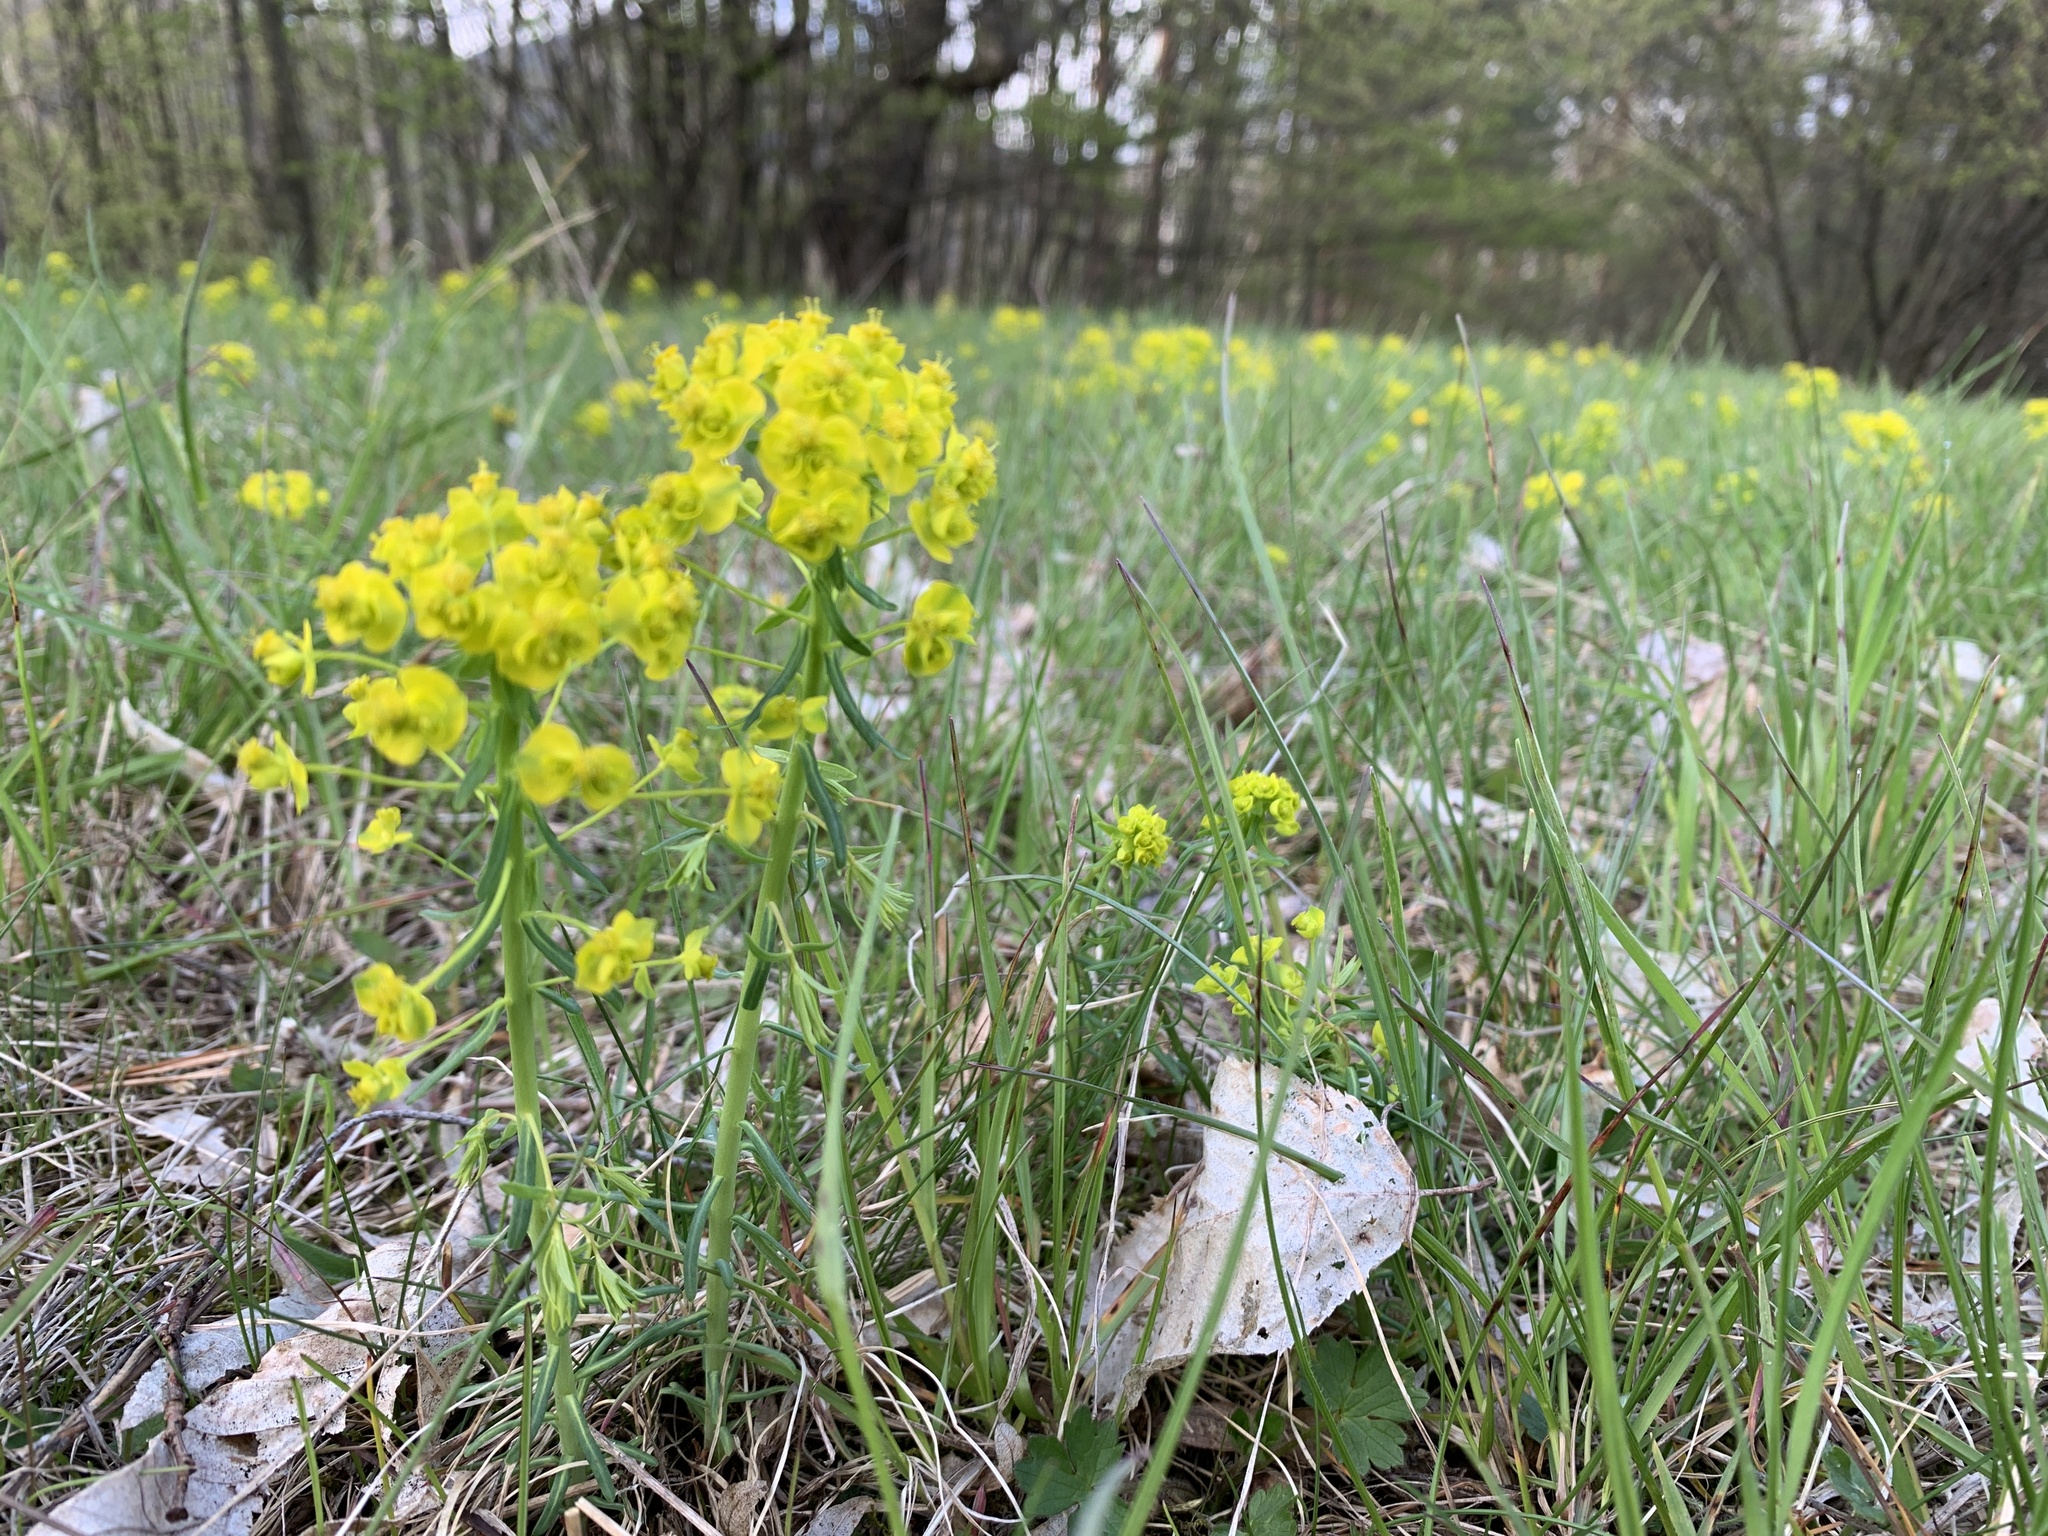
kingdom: Plantae
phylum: Tracheophyta
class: Magnoliopsida
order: Malpighiales
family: Euphorbiaceae
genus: Euphorbia
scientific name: Euphorbia cyparissias
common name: Cypress spurge
